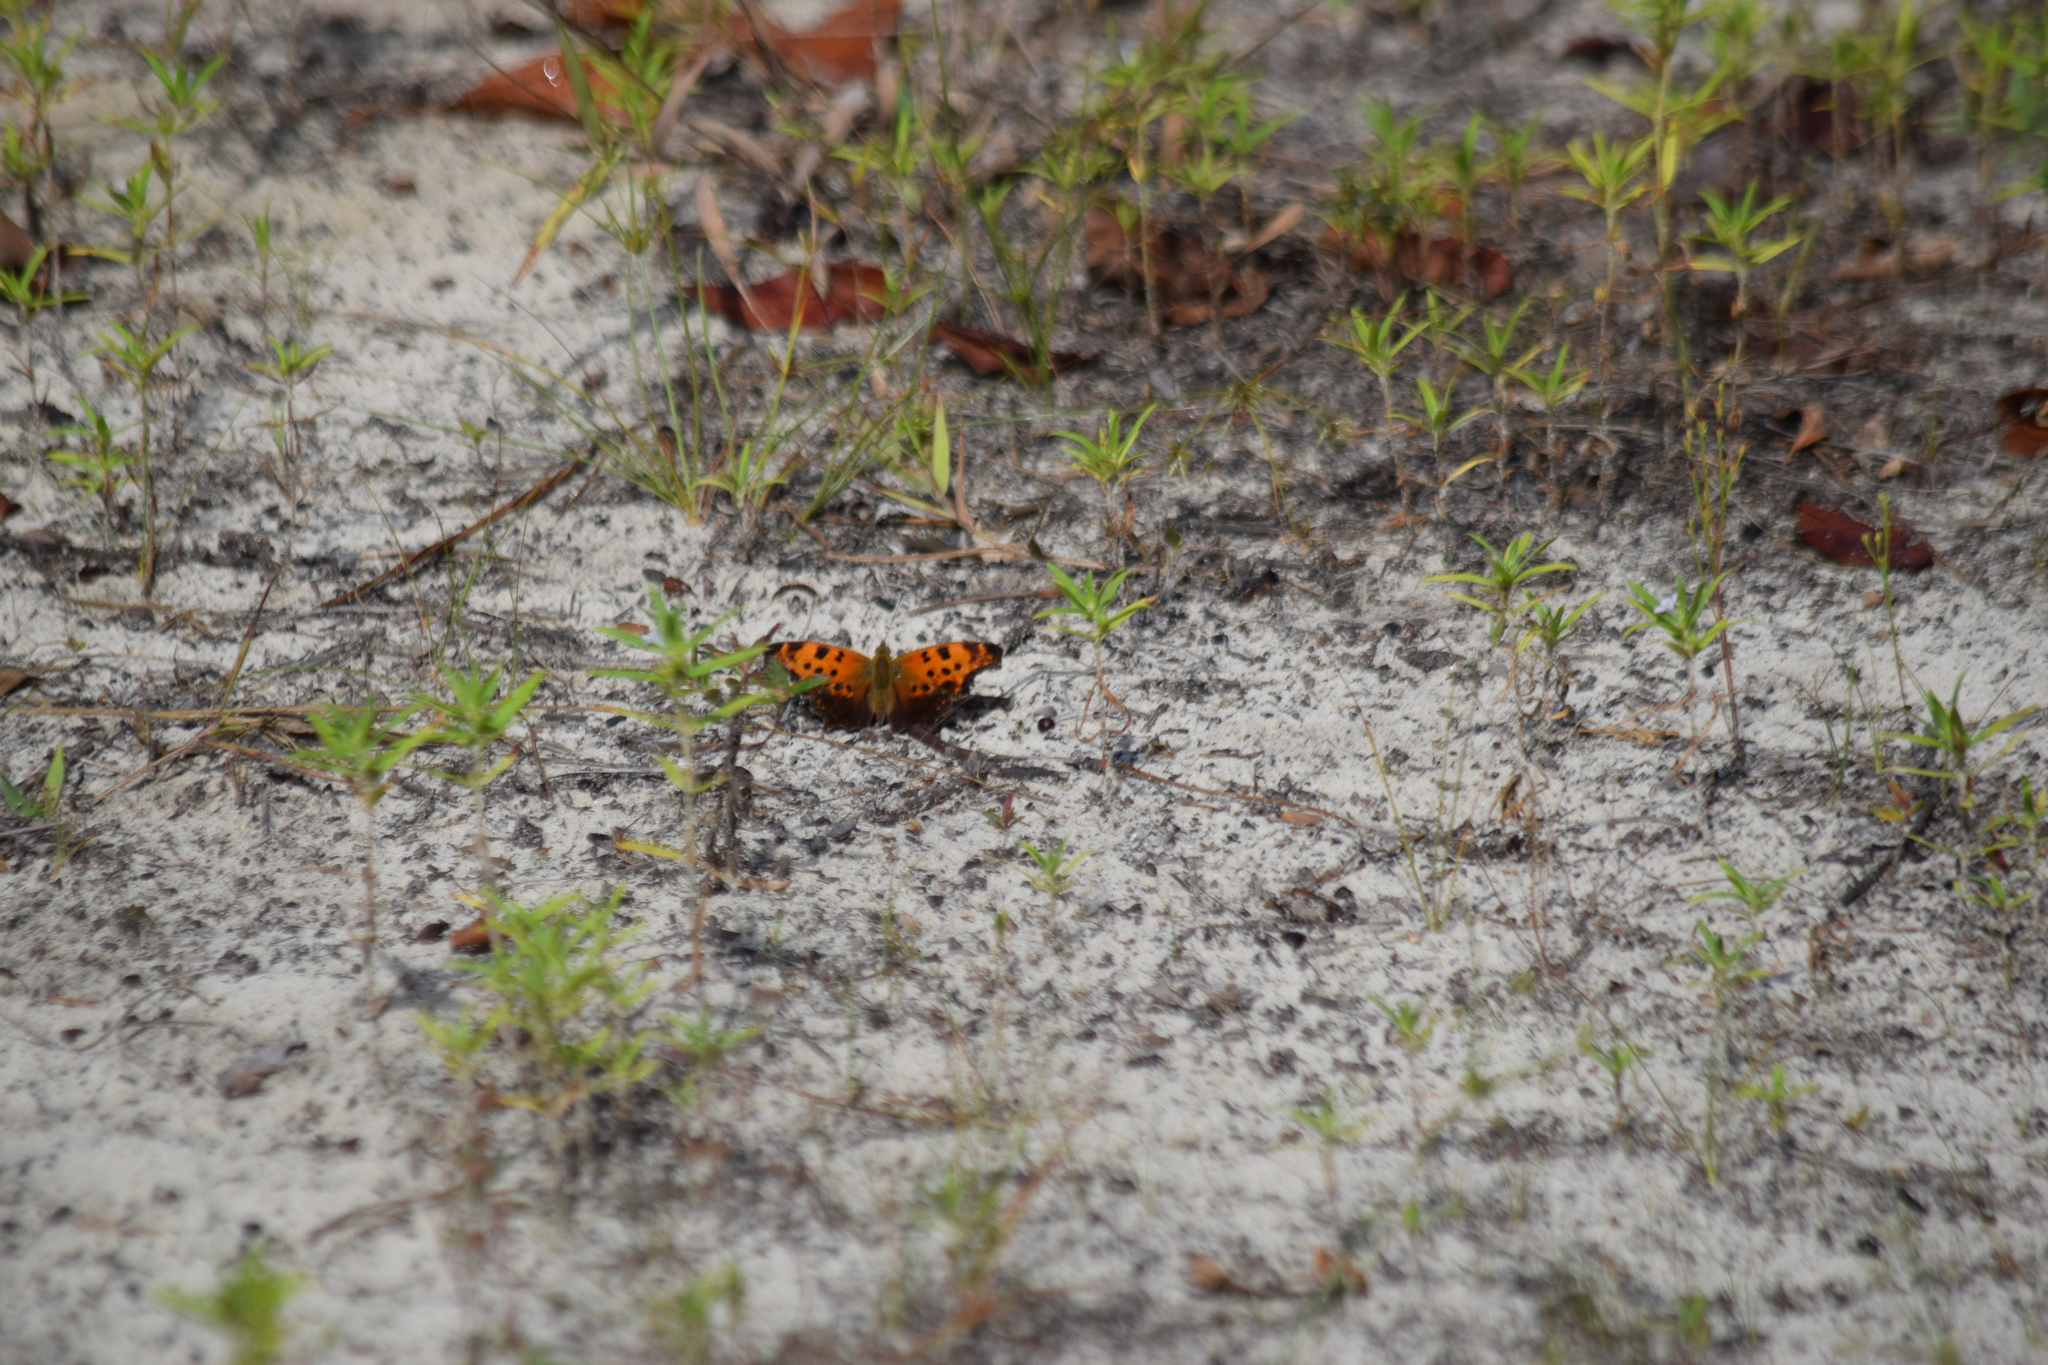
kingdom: Animalia
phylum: Arthropoda
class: Insecta
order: Lepidoptera
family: Nymphalidae
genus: Polygonia
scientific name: Polygonia comma
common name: Eastern comma
